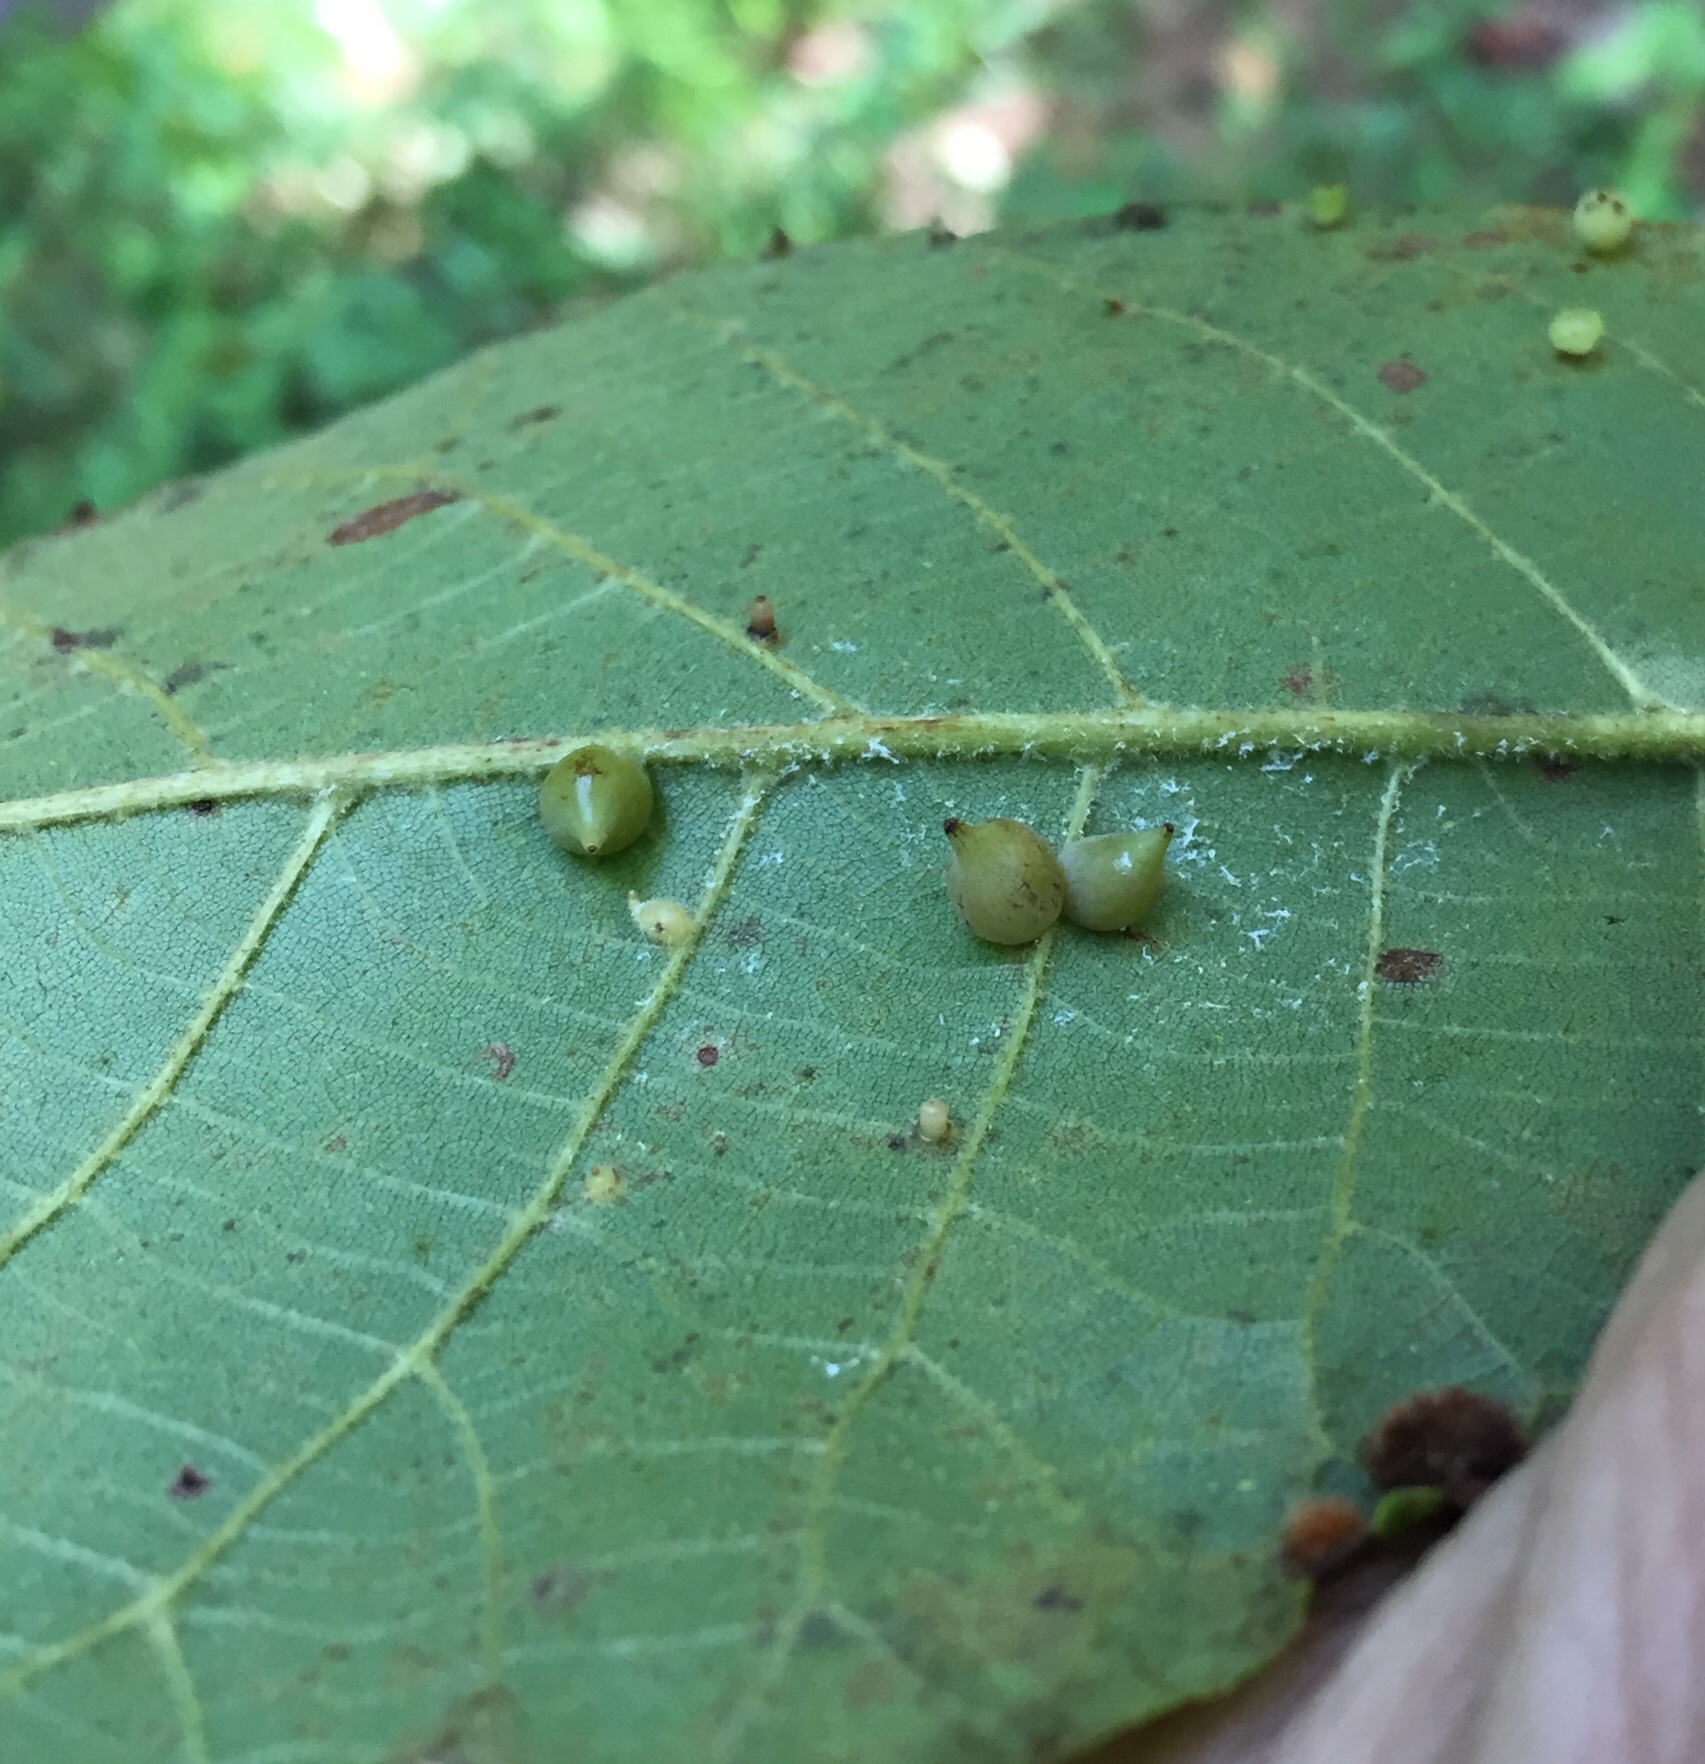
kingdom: Animalia
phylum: Arthropoda
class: Insecta
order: Diptera
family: Cecidomyiidae
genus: Caryomyia
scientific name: Caryomyia caryaecola
